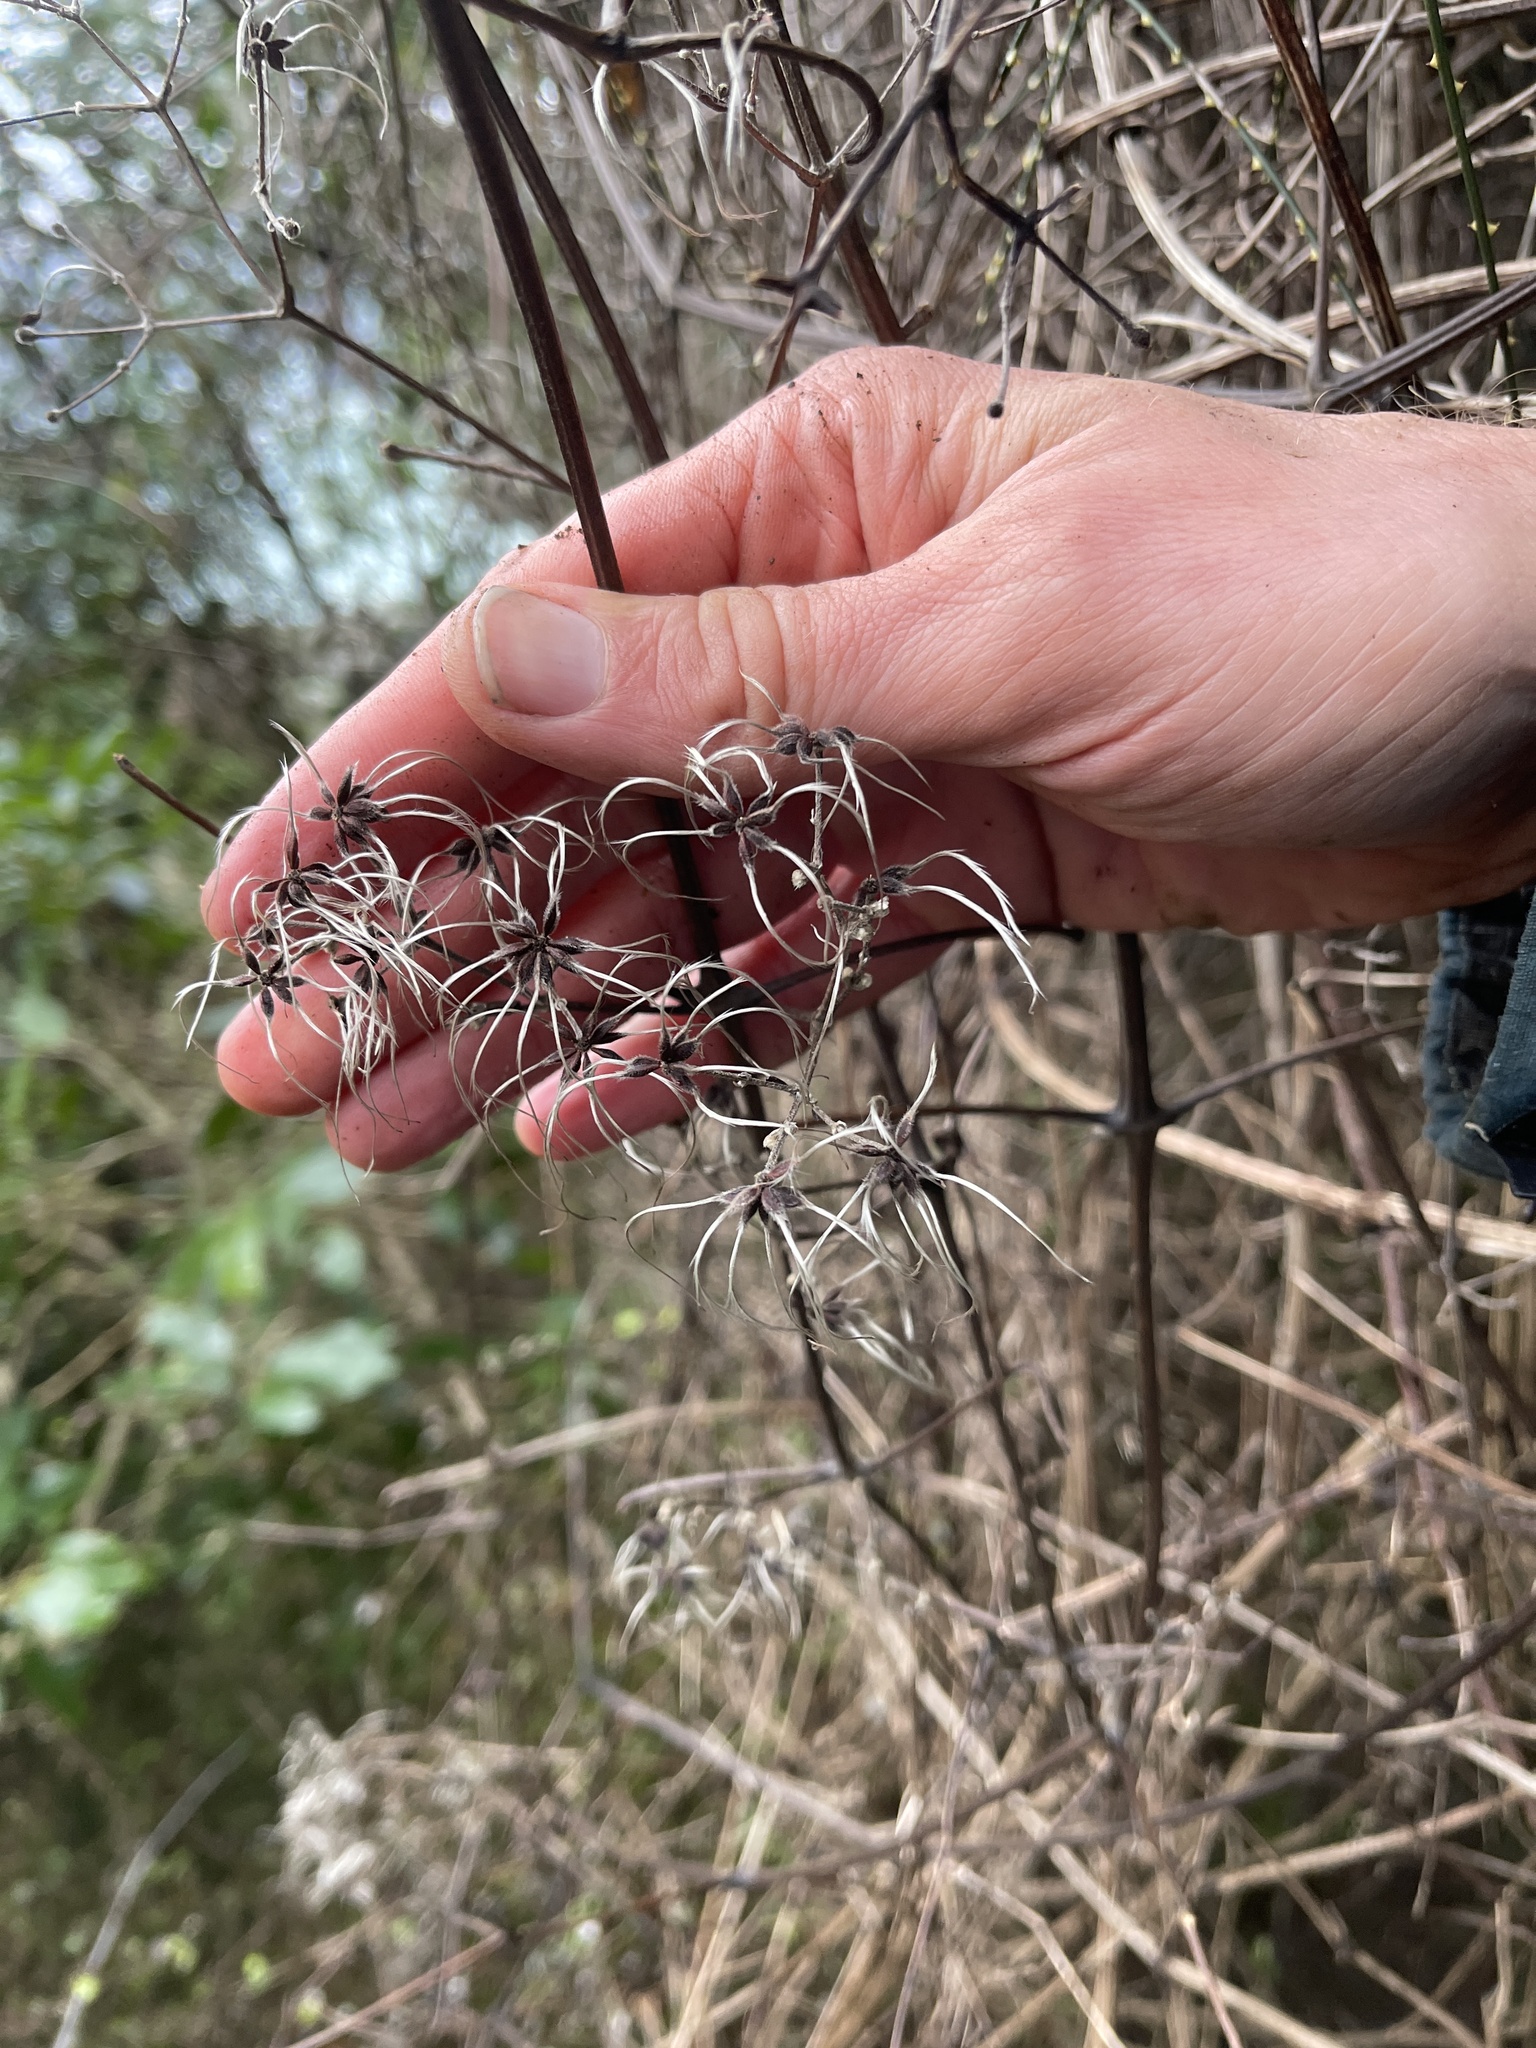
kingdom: Plantae
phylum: Tracheophyta
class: Magnoliopsida
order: Ranunculales
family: Ranunculaceae
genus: Clematis
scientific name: Clematis vitalba
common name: Evergreen clematis
